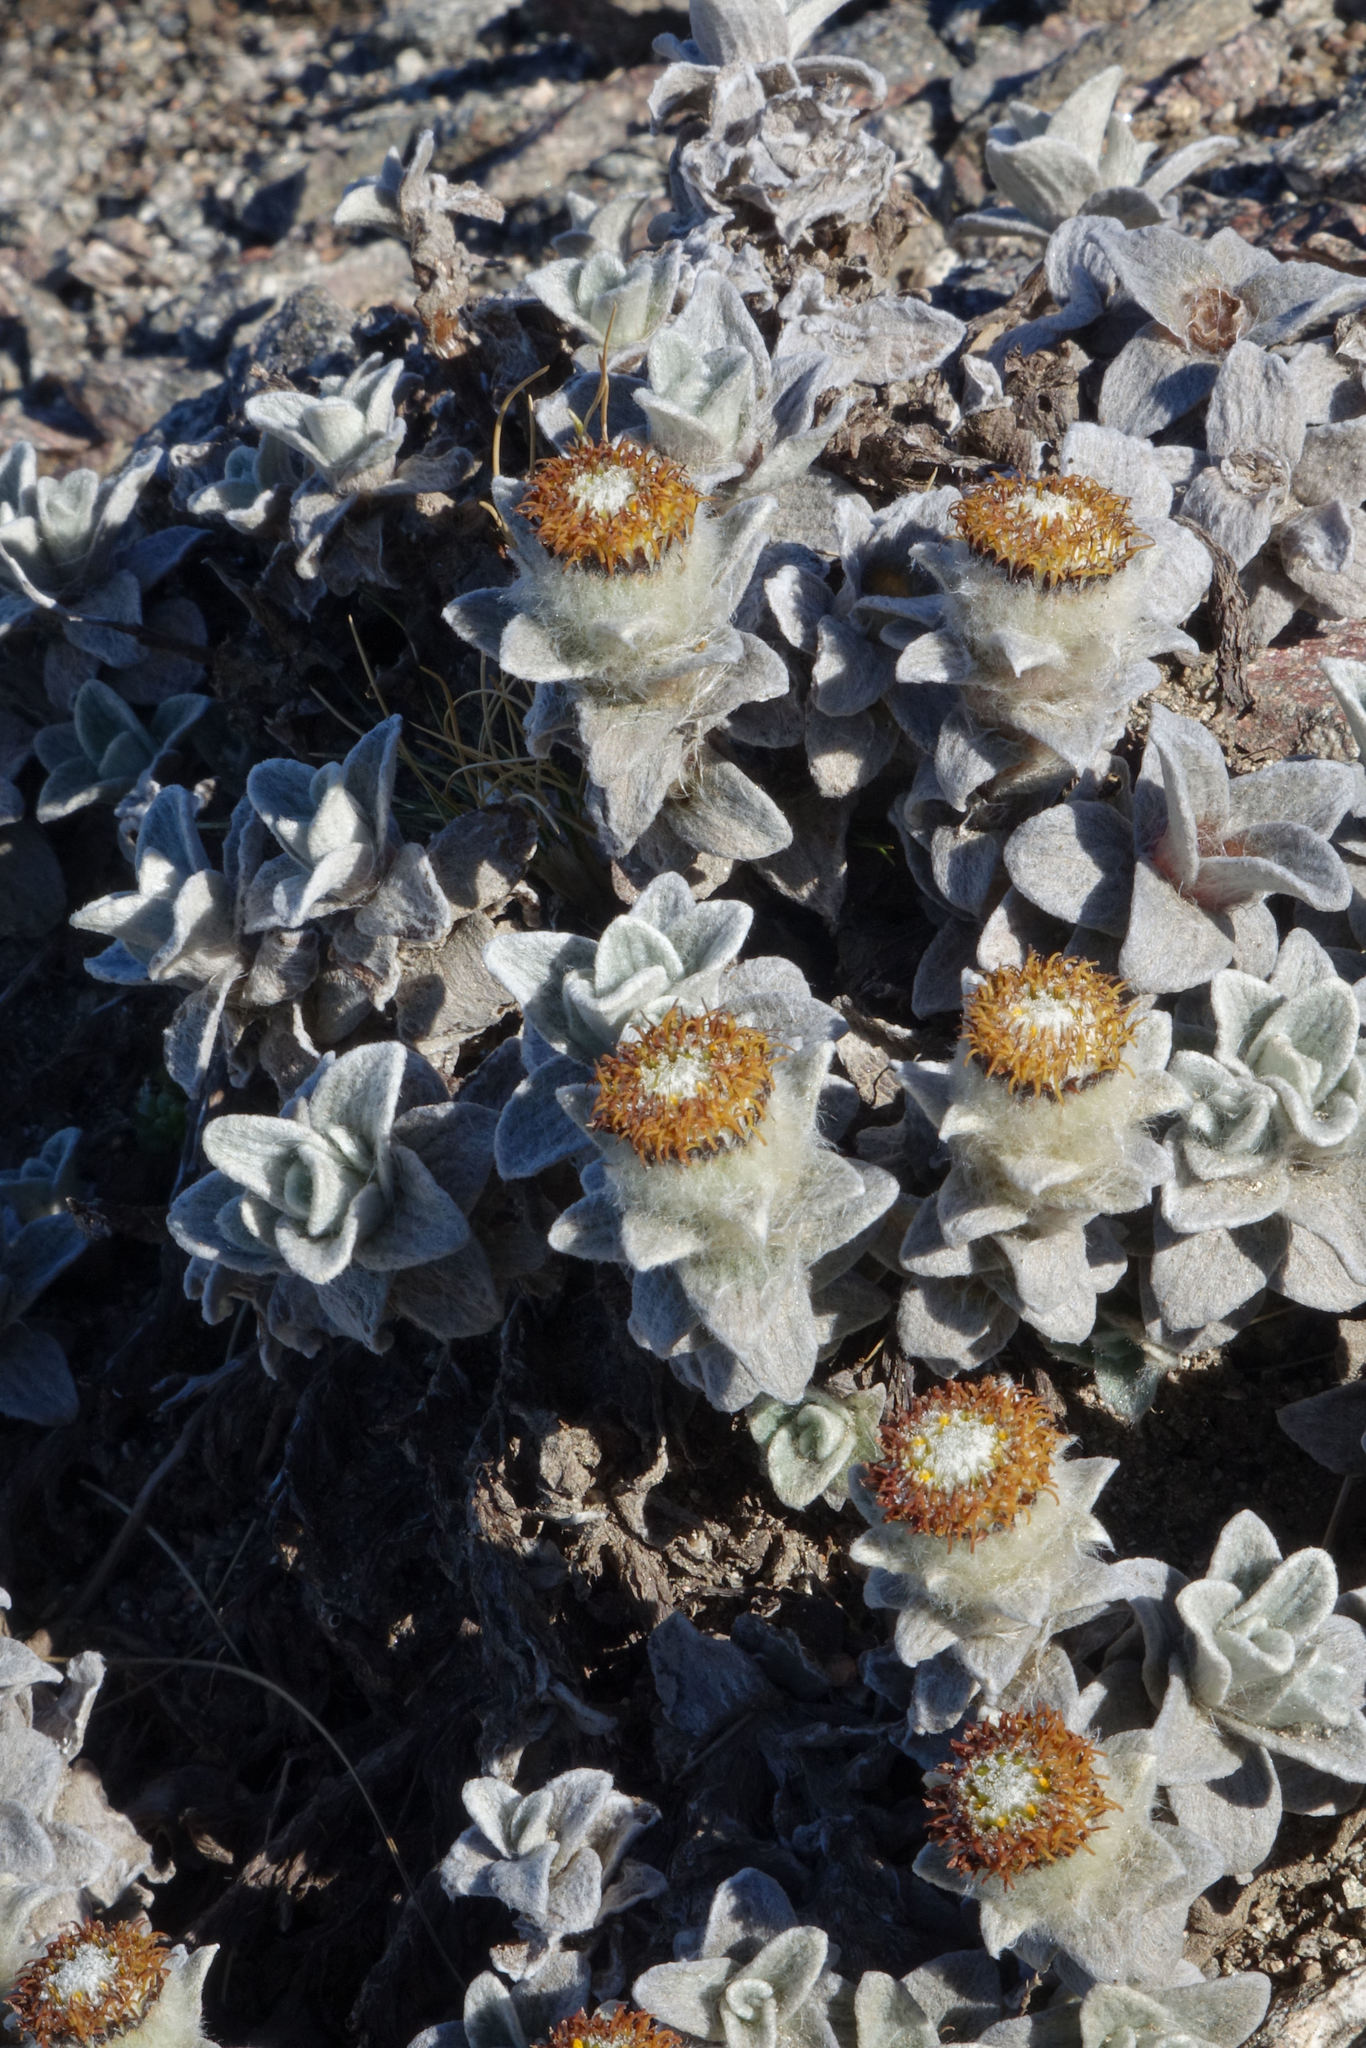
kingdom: Plantae
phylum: Tracheophyta
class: Magnoliopsida
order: Asterales
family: Asteraceae
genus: Haastia
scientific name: Haastia sinclairii
